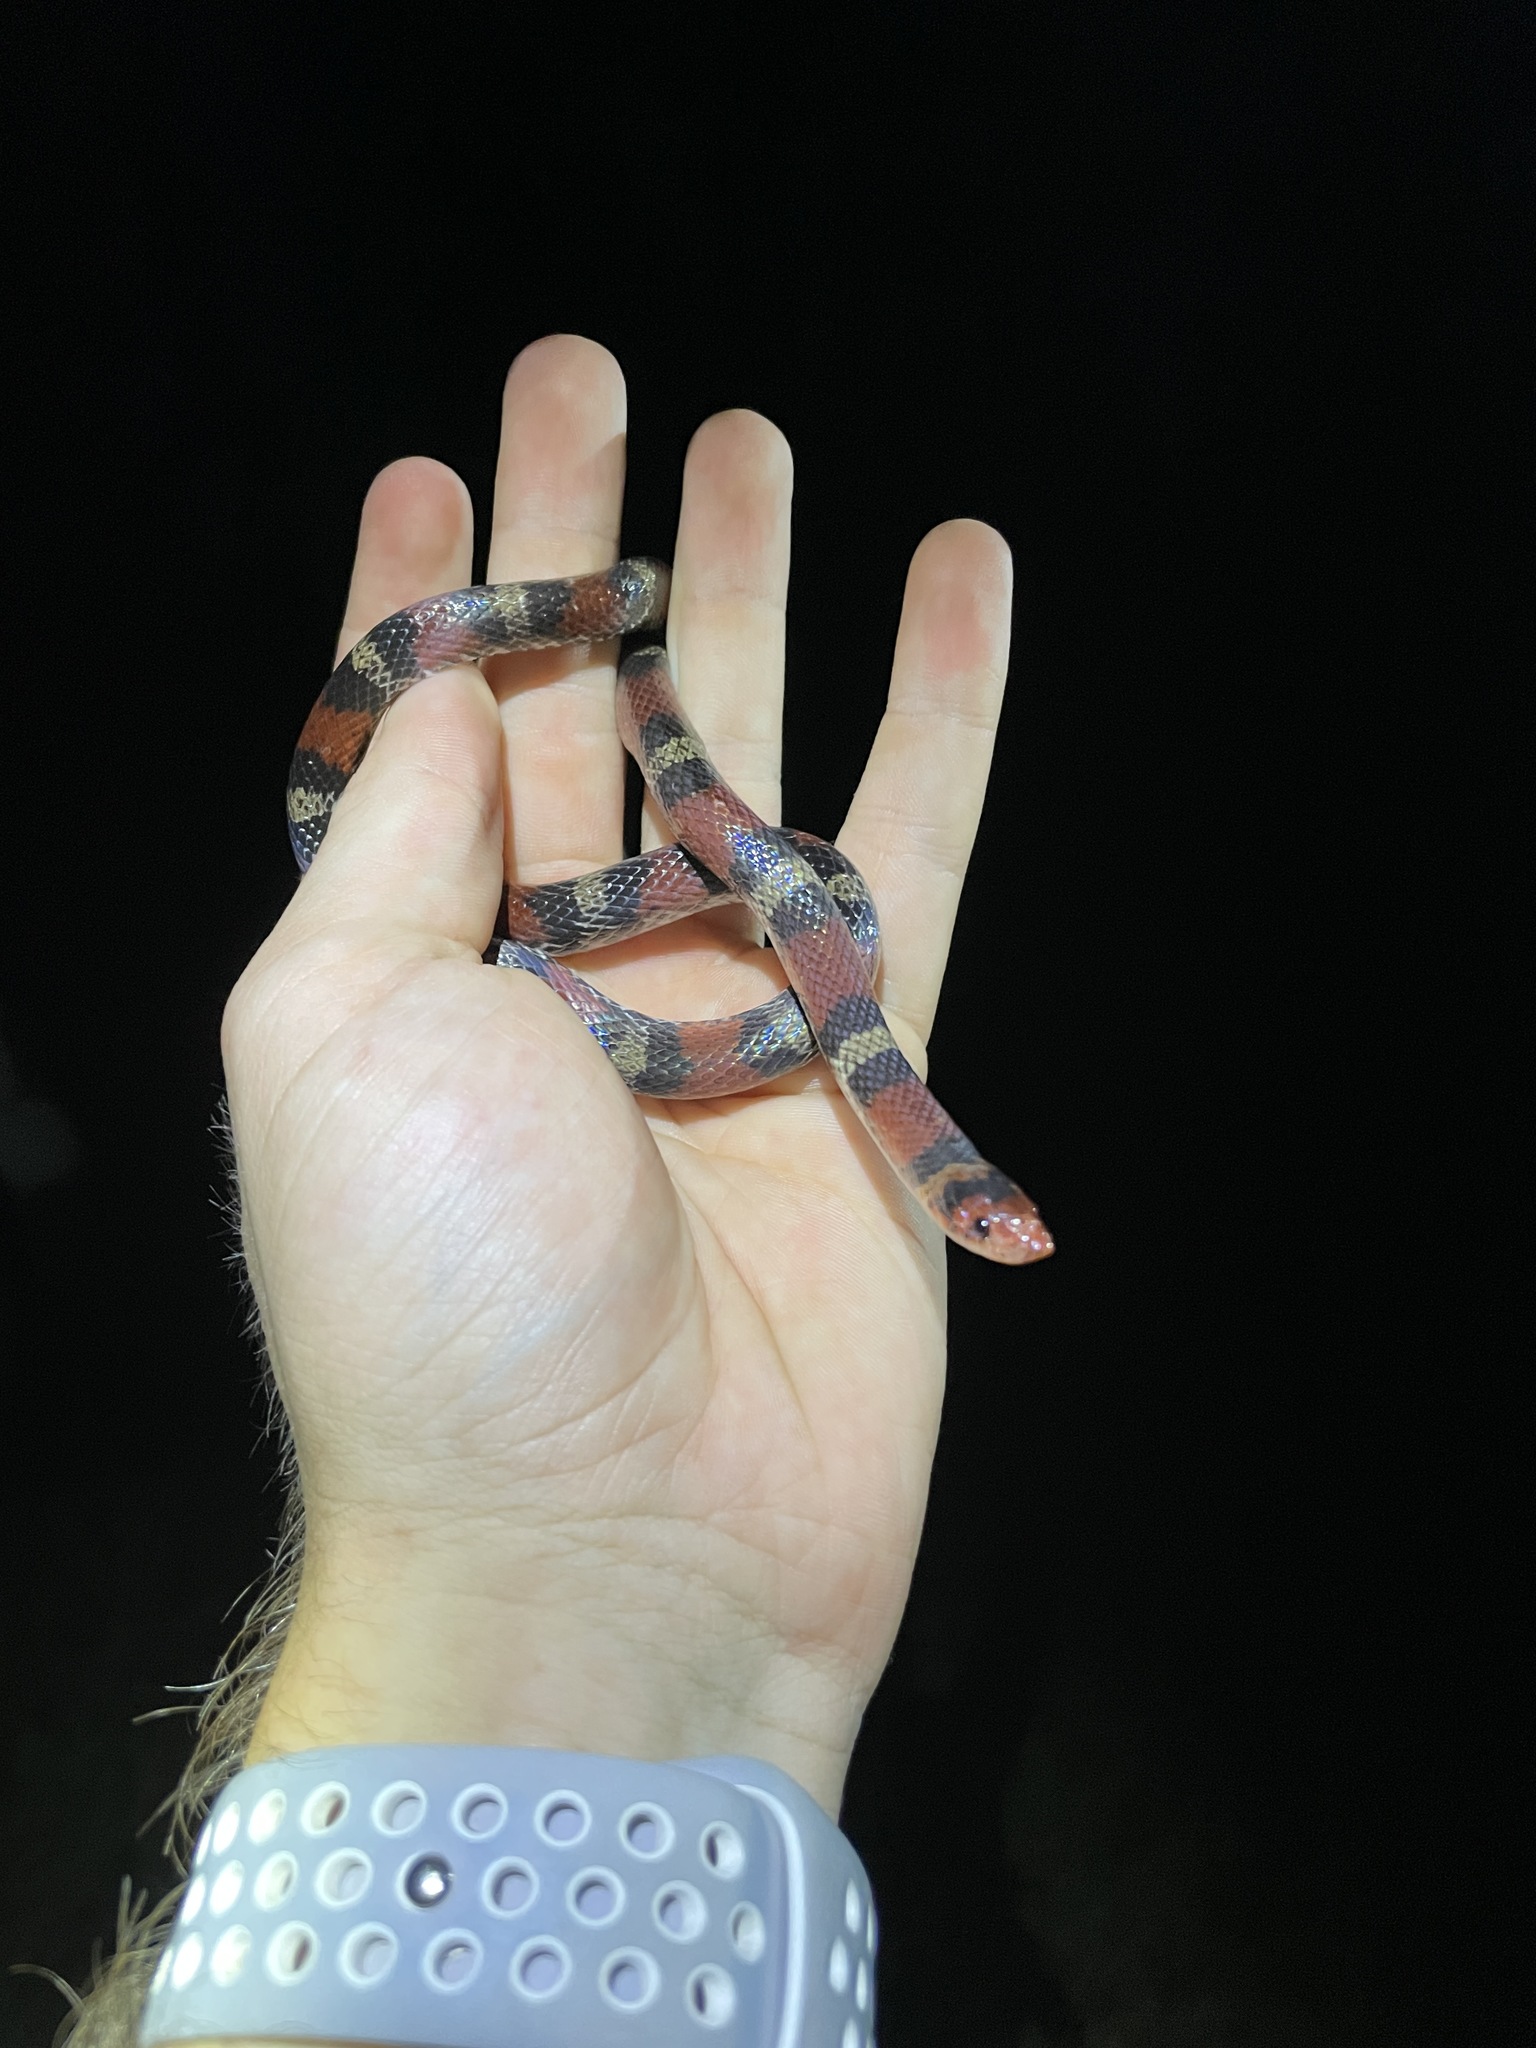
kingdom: Animalia
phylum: Chordata
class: Squamata
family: Colubridae
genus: Cemophora
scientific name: Cemophora coccinea
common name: Scarlet snake
